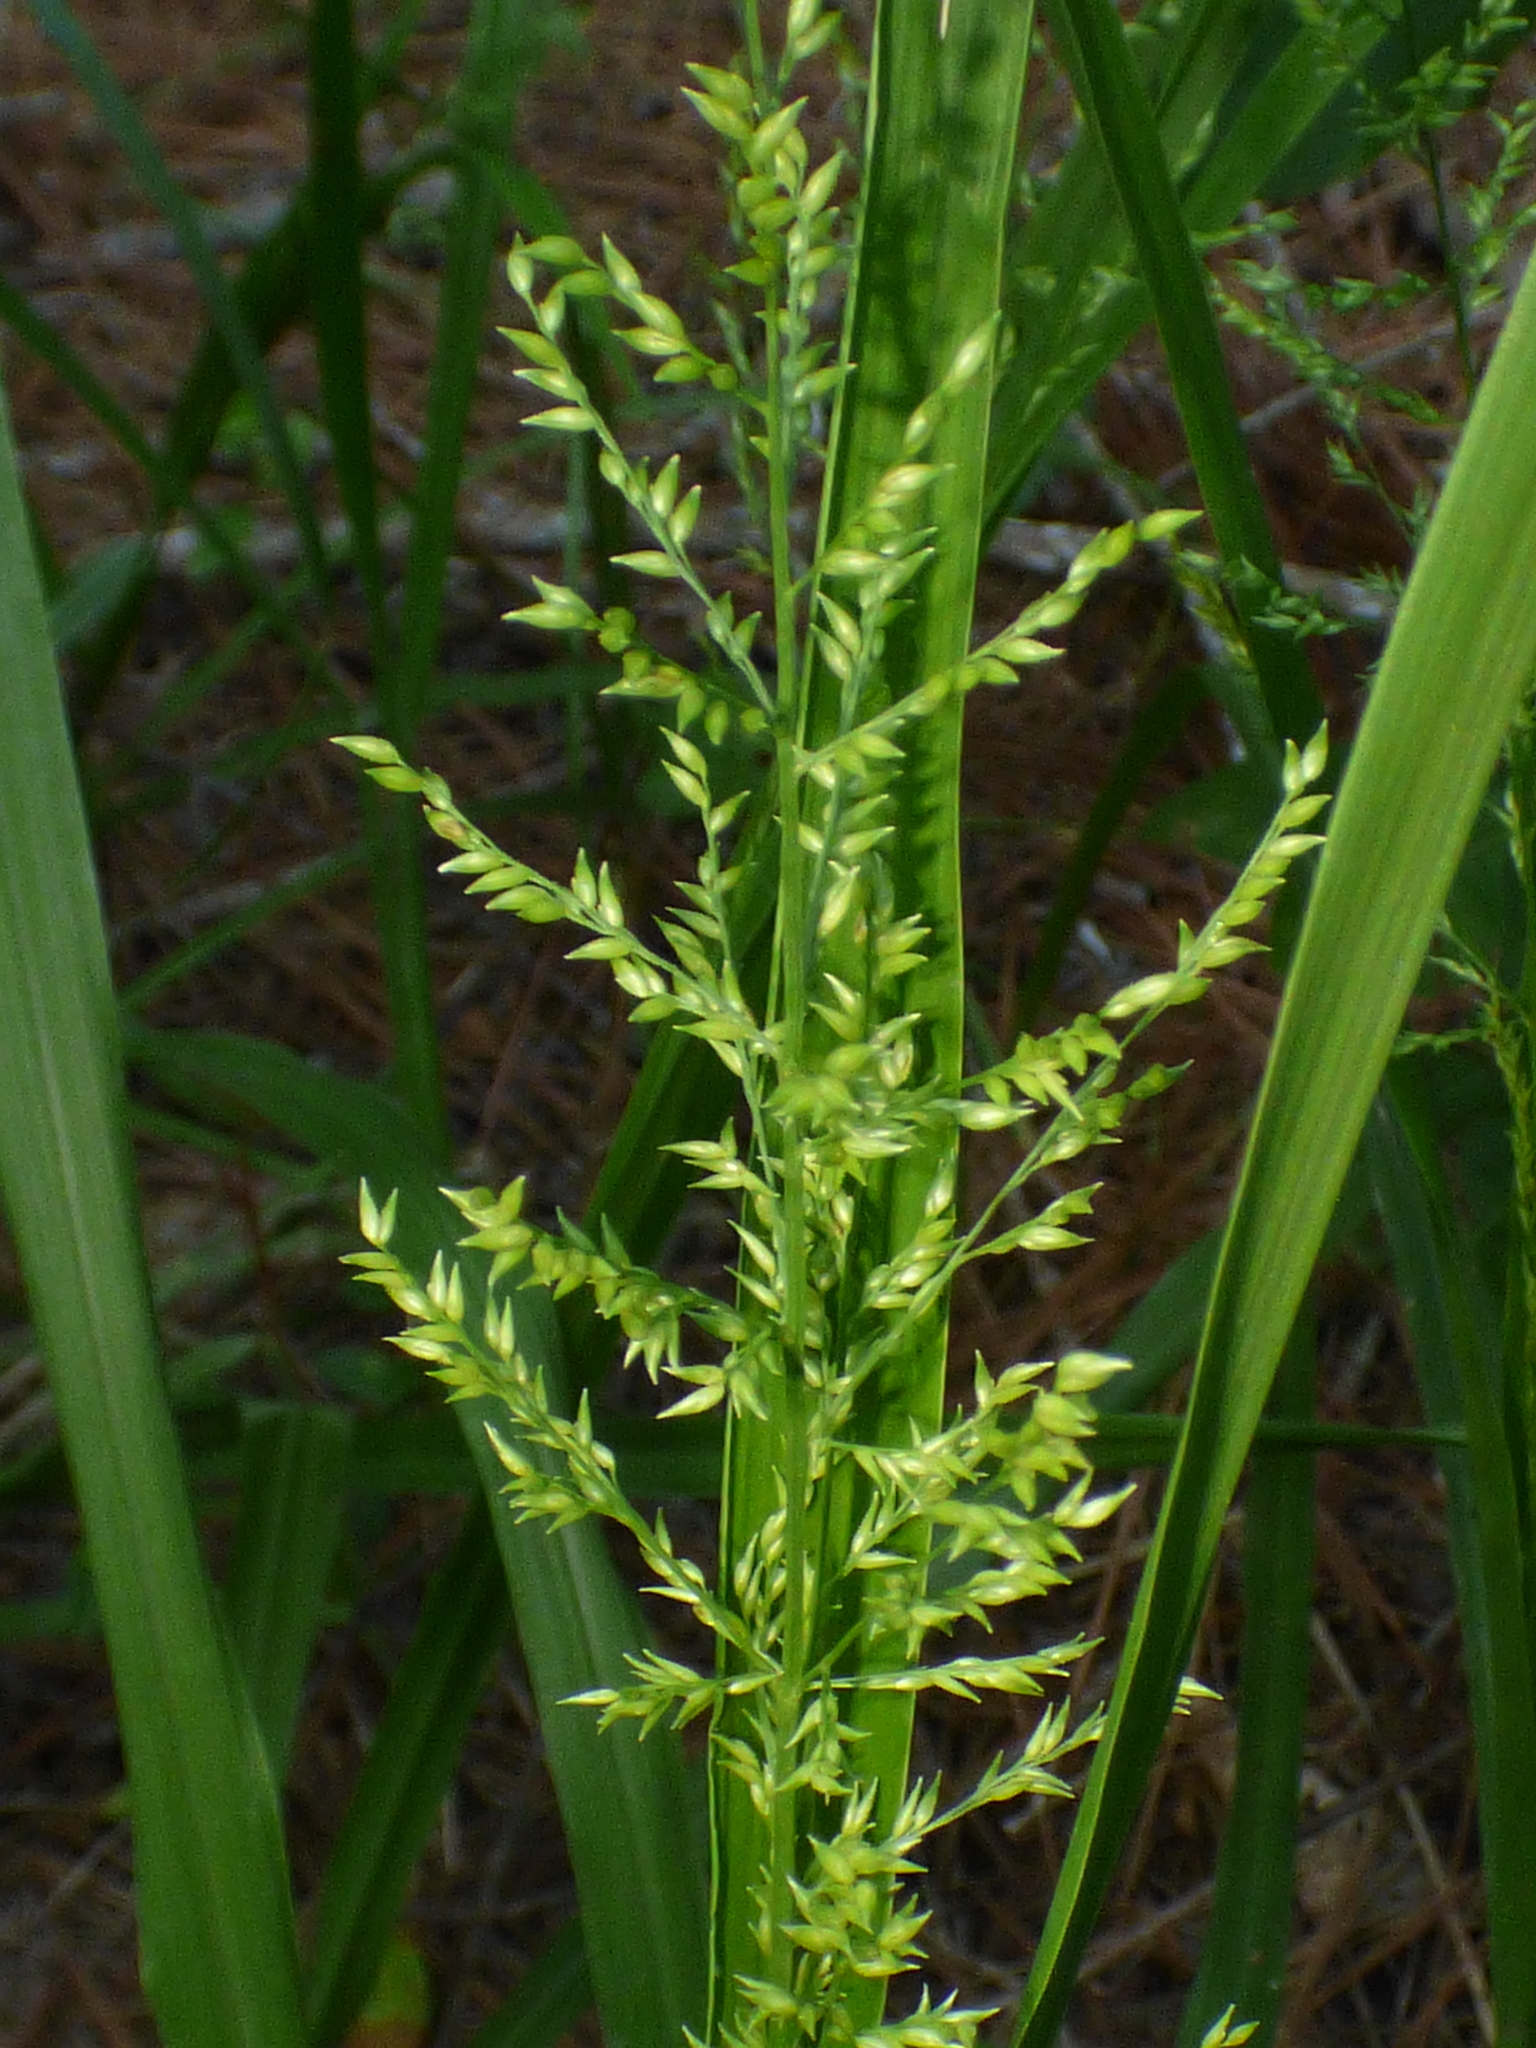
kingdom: Plantae
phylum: Tracheophyta
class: Liliopsida
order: Poales
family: Poaceae
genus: Coleataenia
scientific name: Coleataenia anceps
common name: Beaked panic grass
